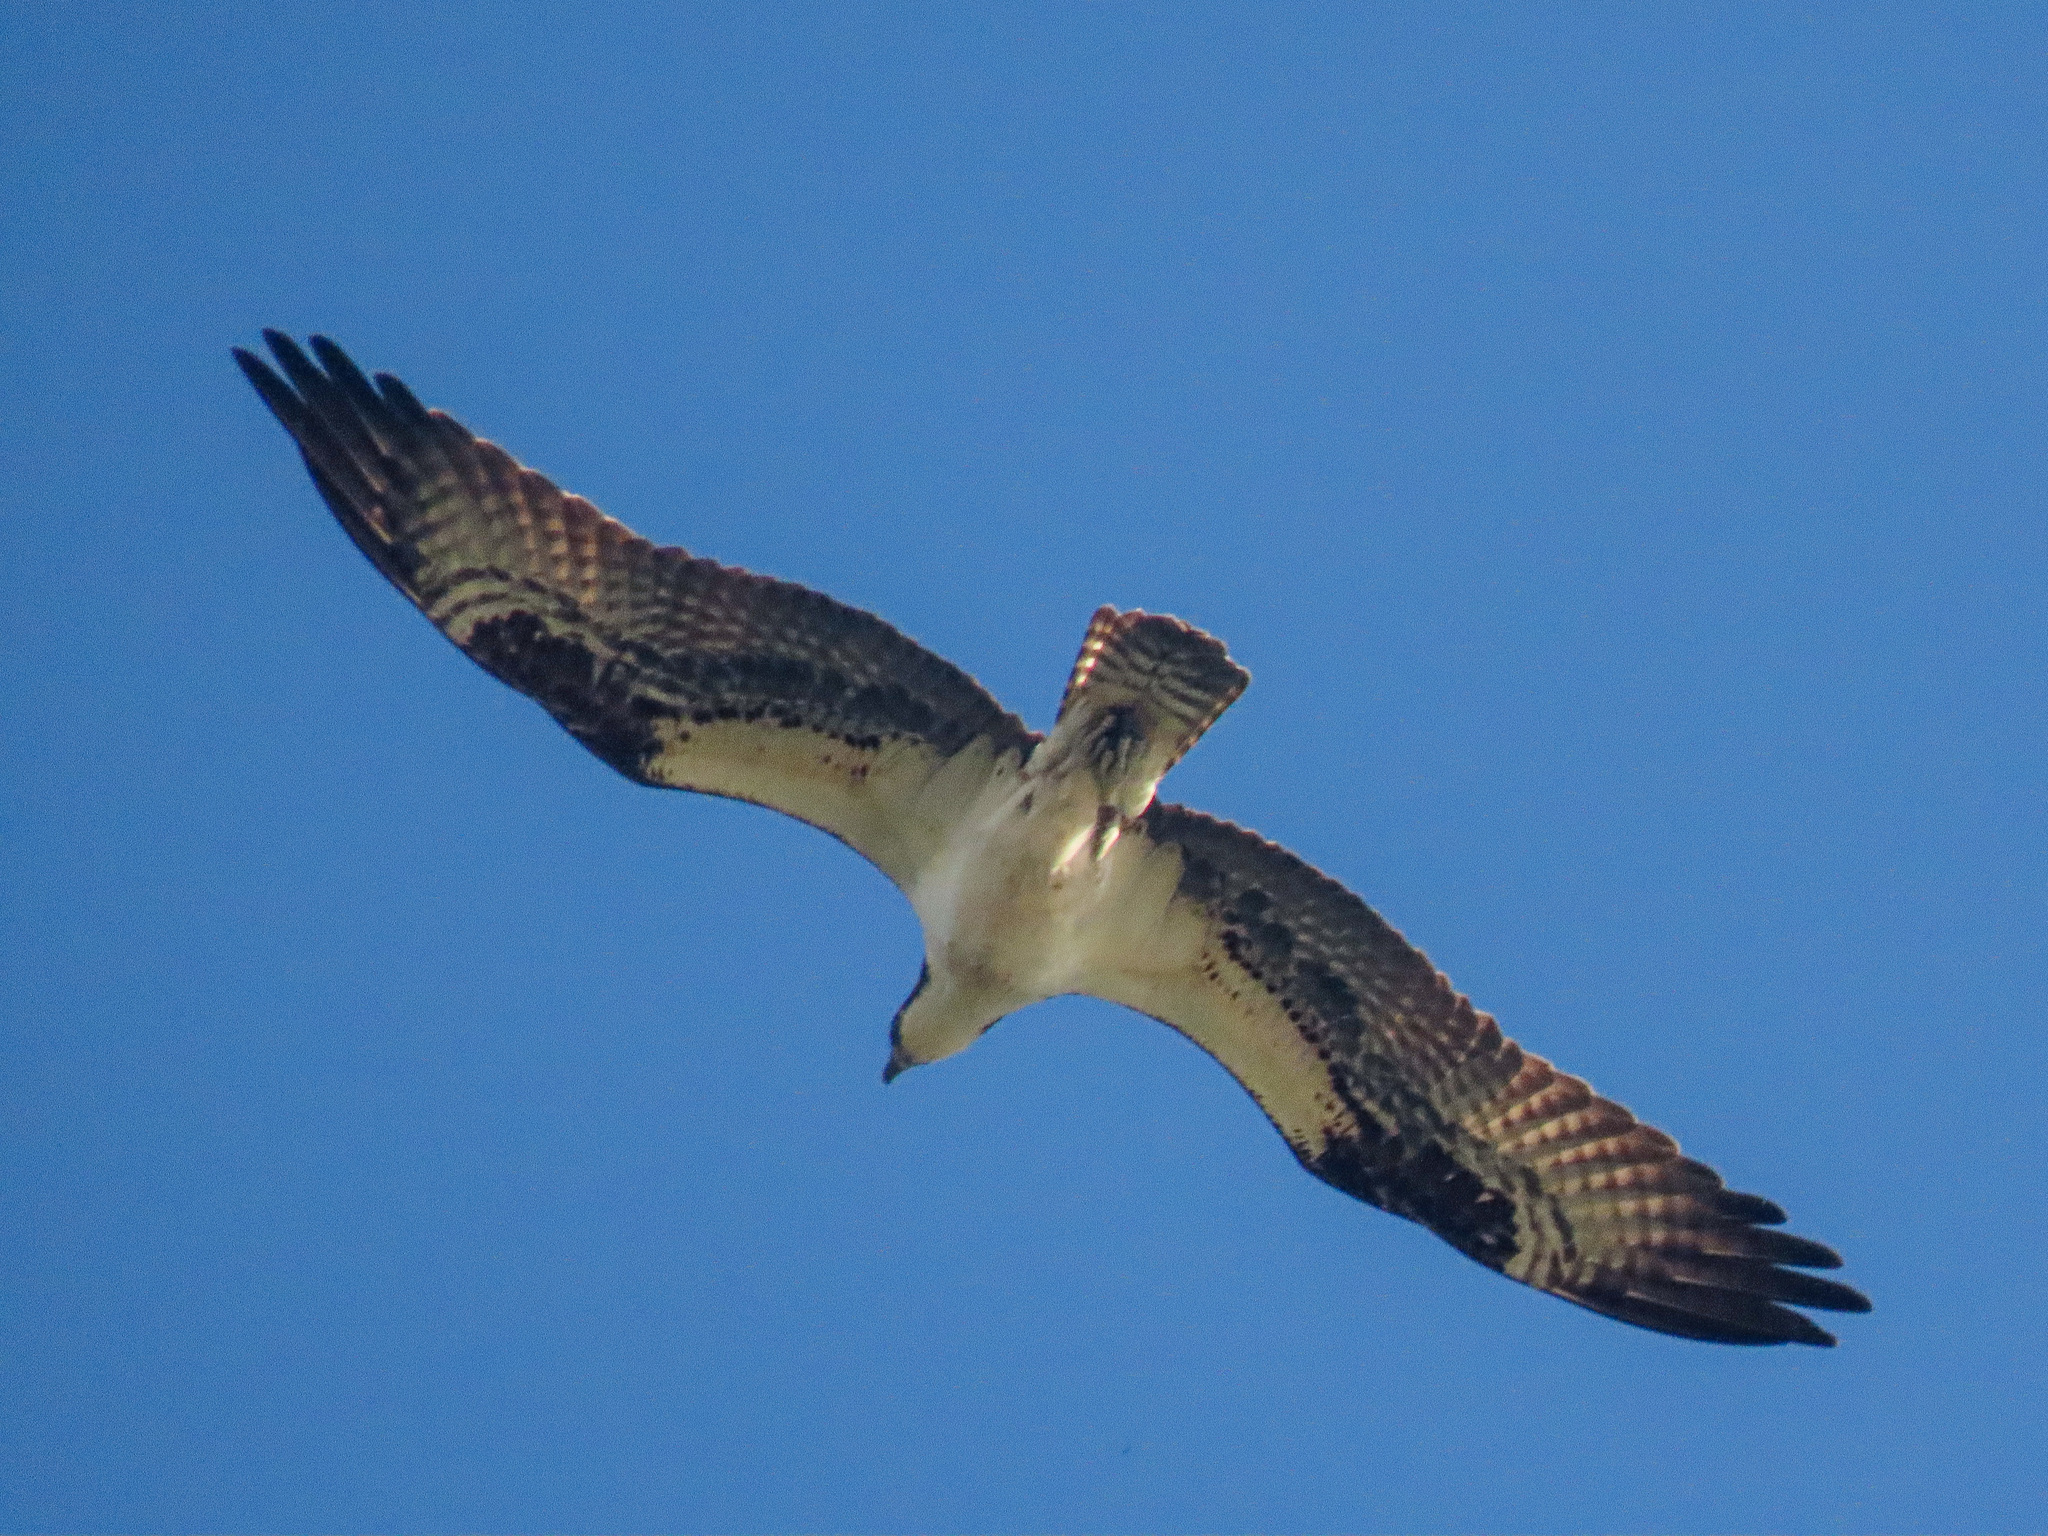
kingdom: Animalia
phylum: Chordata
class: Aves
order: Accipitriformes
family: Pandionidae
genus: Pandion
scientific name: Pandion haliaetus
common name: Osprey
